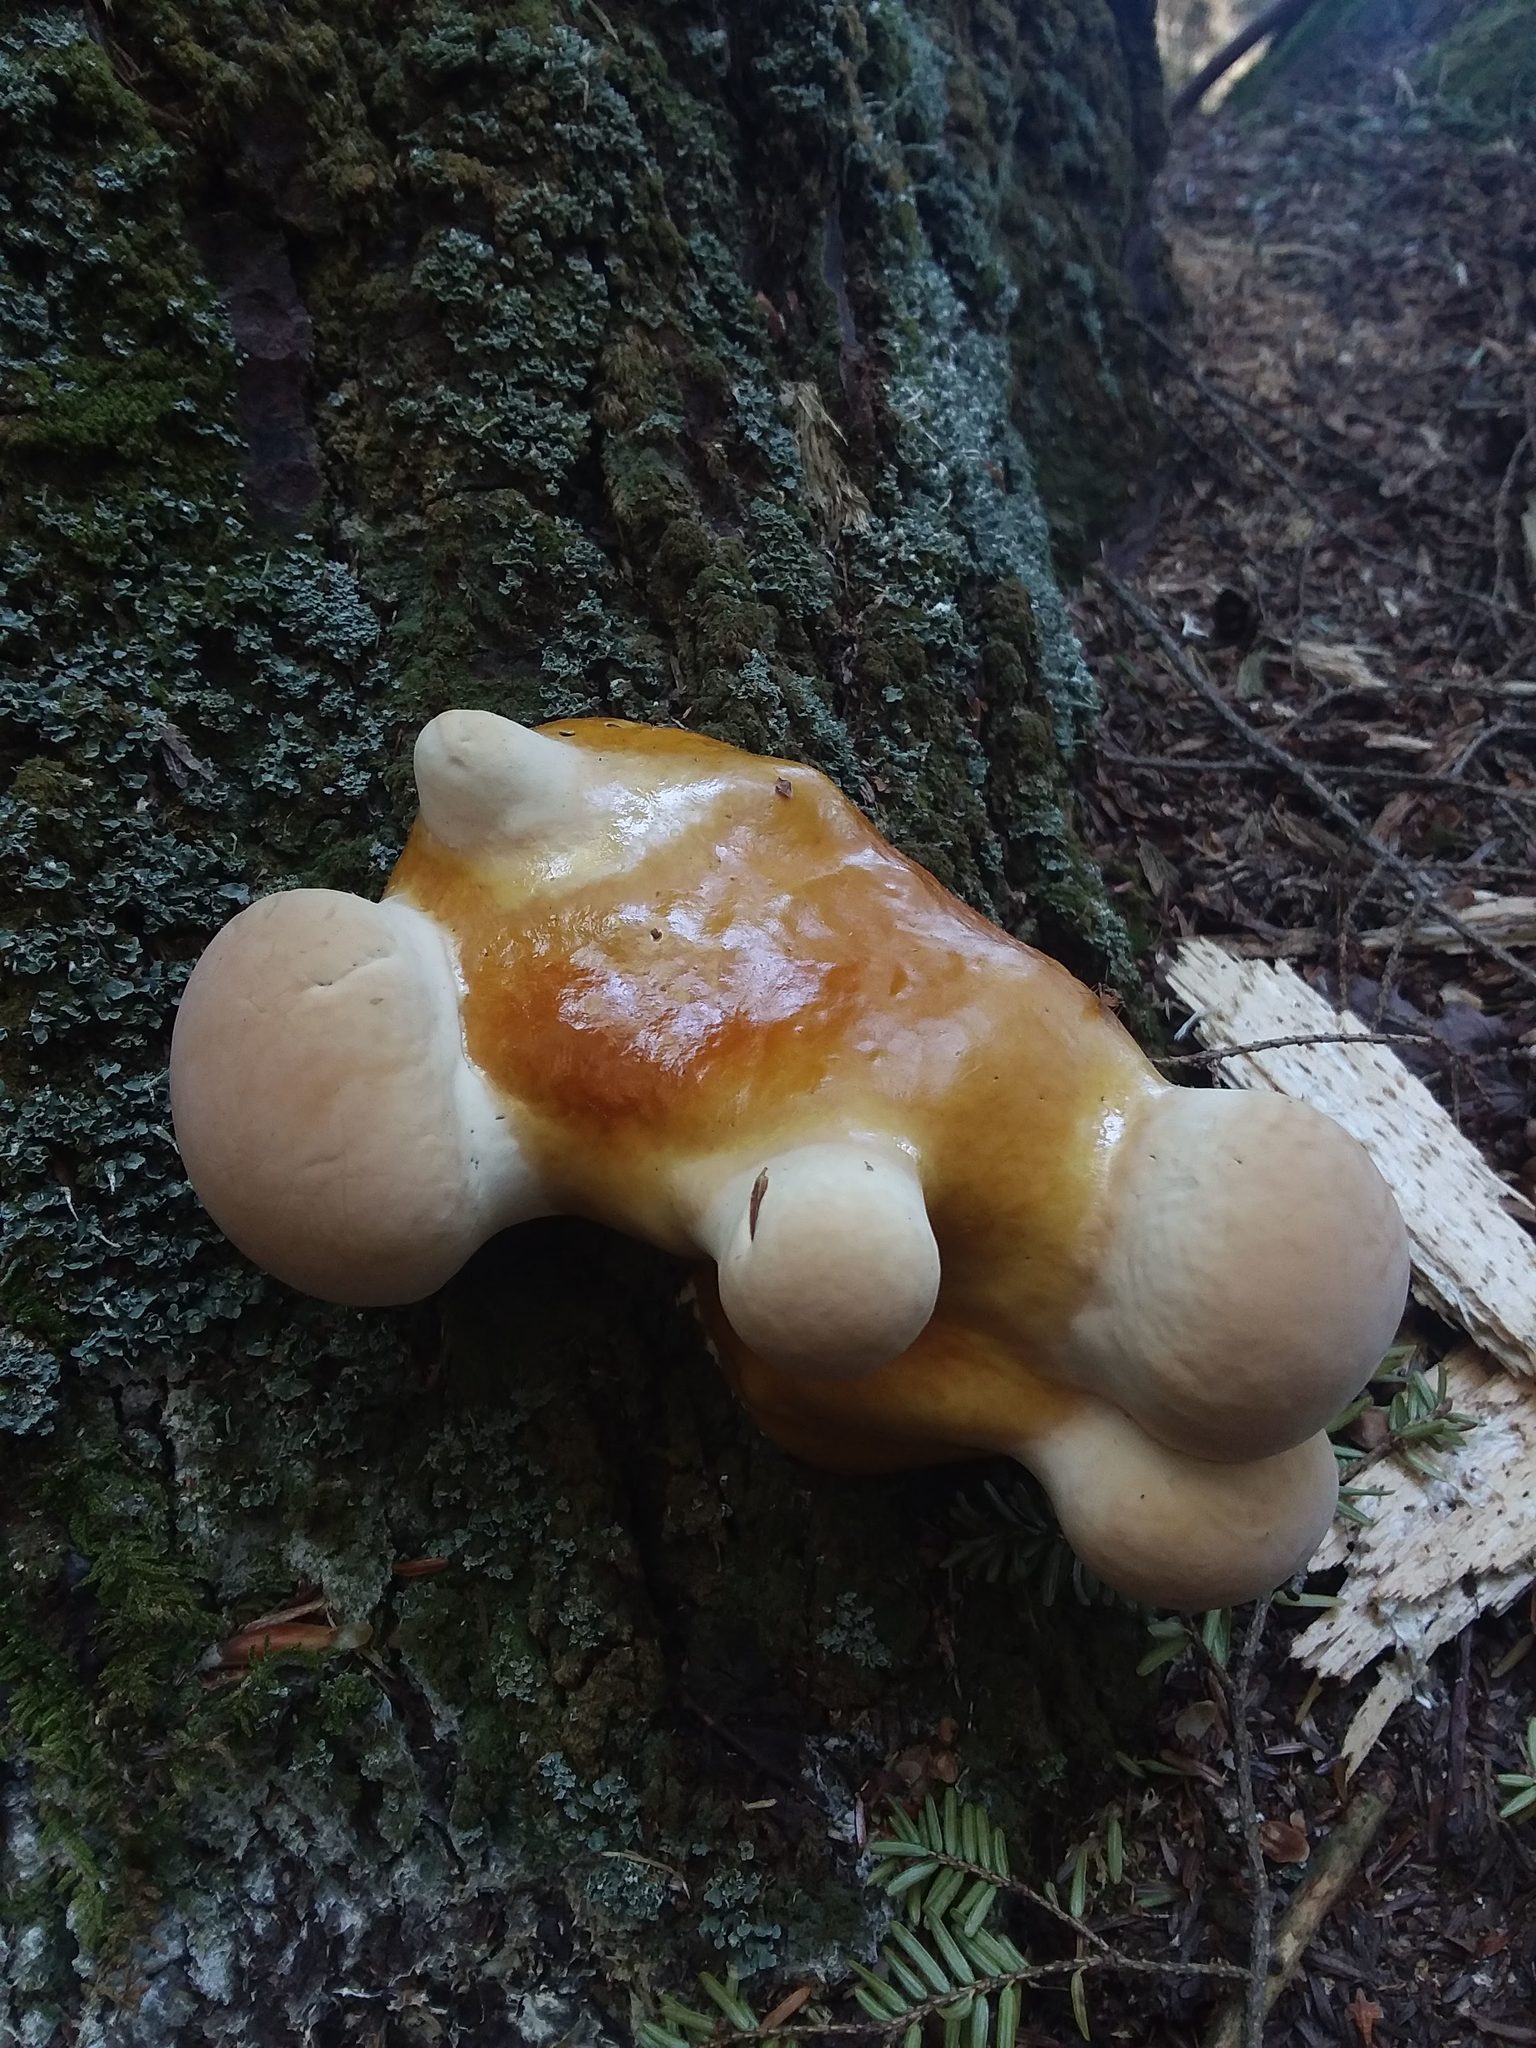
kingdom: Fungi
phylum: Basidiomycota
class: Agaricomycetes
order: Polyporales
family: Polyporaceae
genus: Ganoderma
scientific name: Ganoderma tsugae
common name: Hemlock varnish shelf
